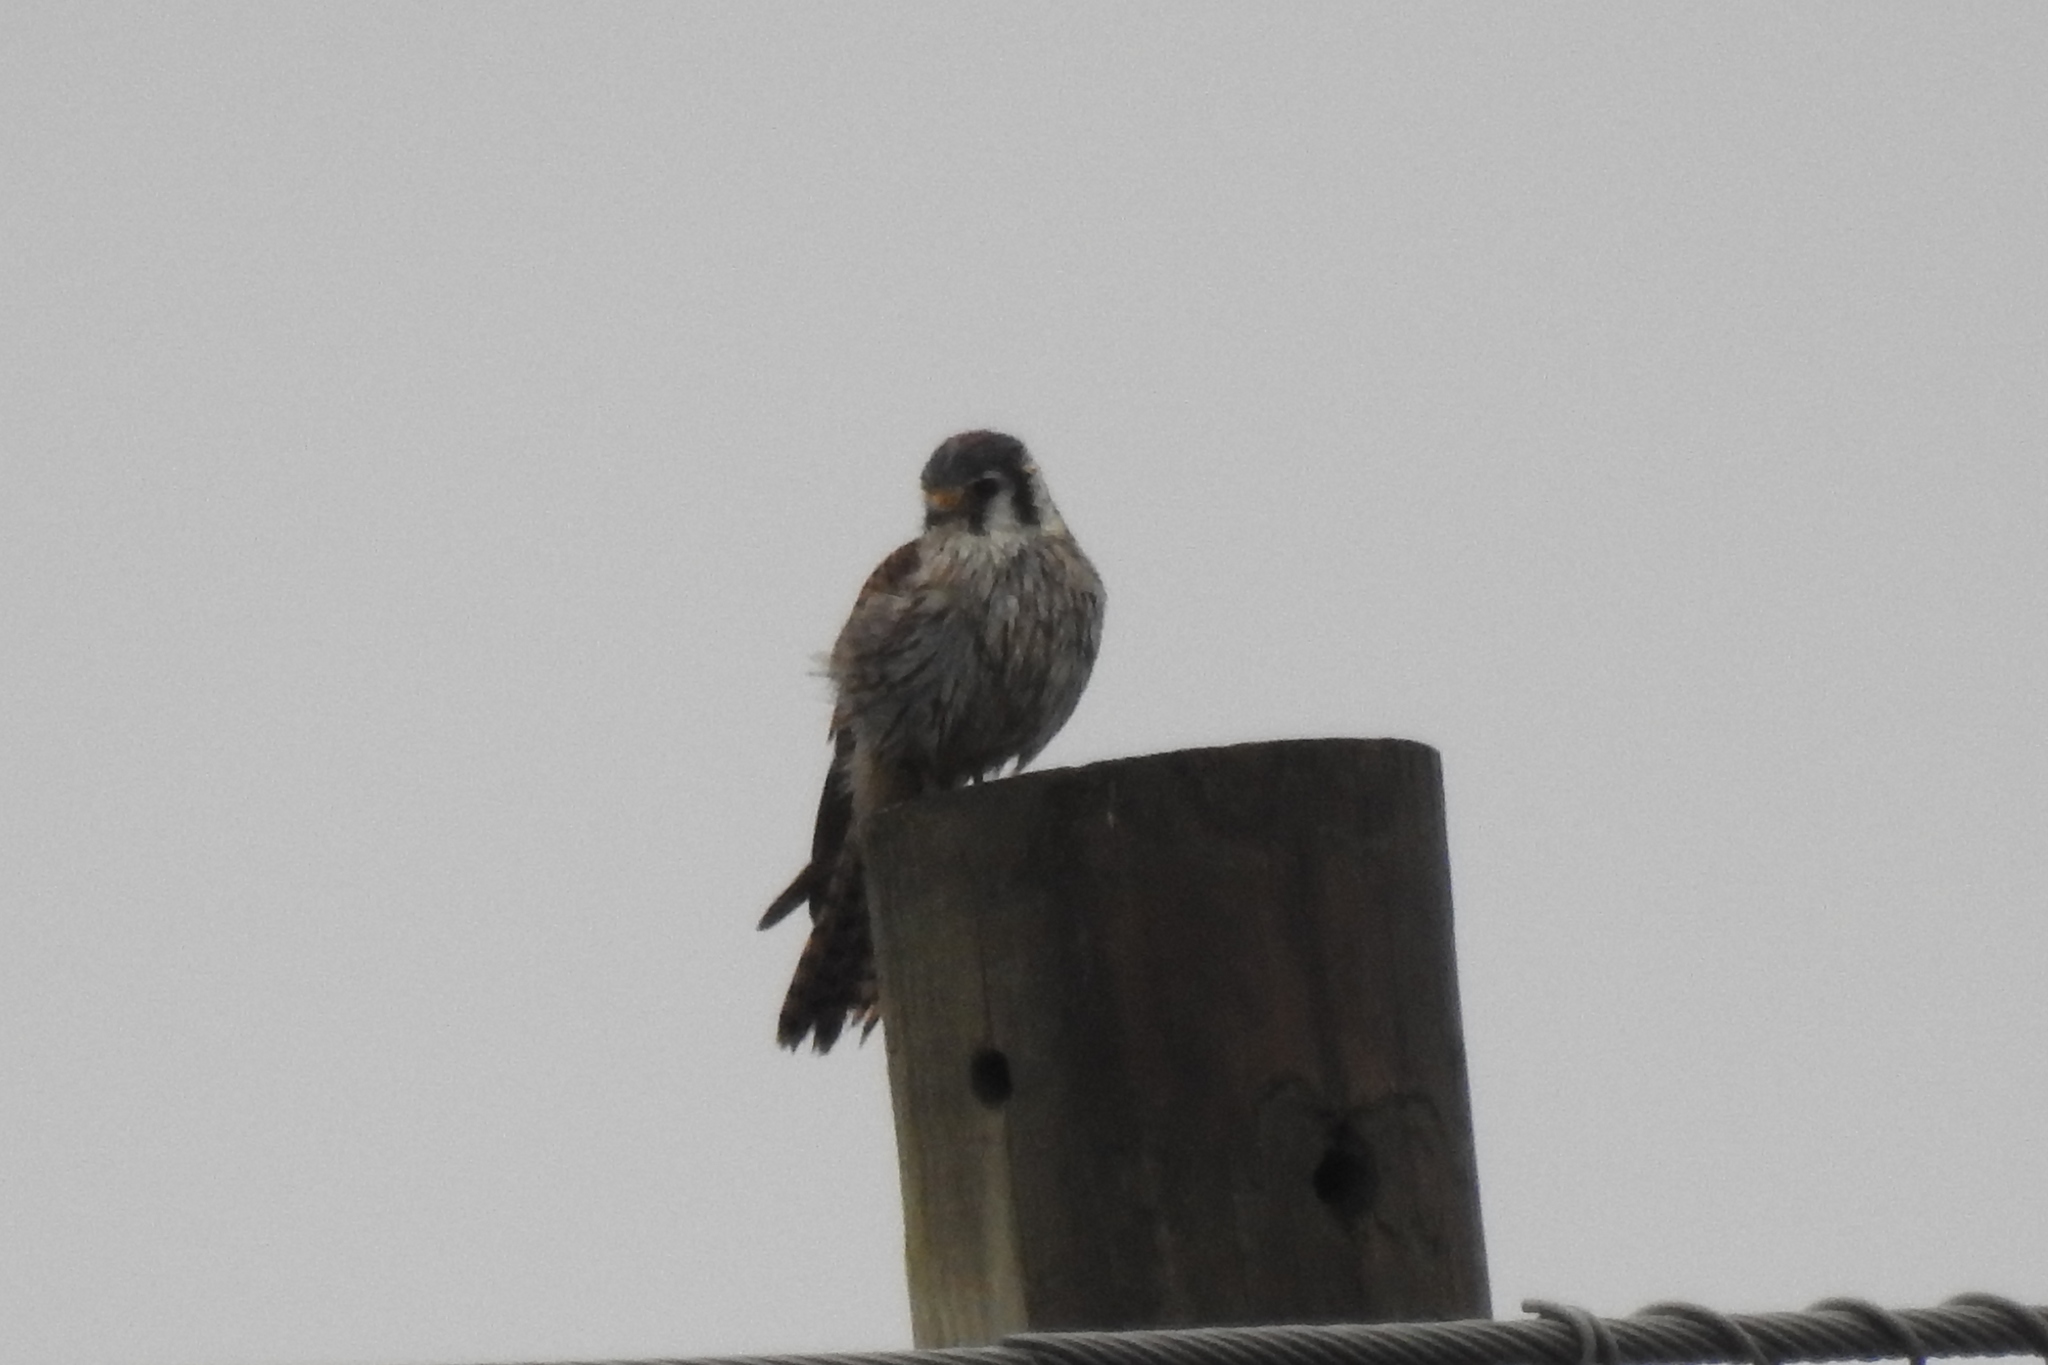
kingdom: Animalia
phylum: Chordata
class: Aves
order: Falconiformes
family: Falconidae
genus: Falco
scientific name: Falco sparverius
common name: American kestrel
